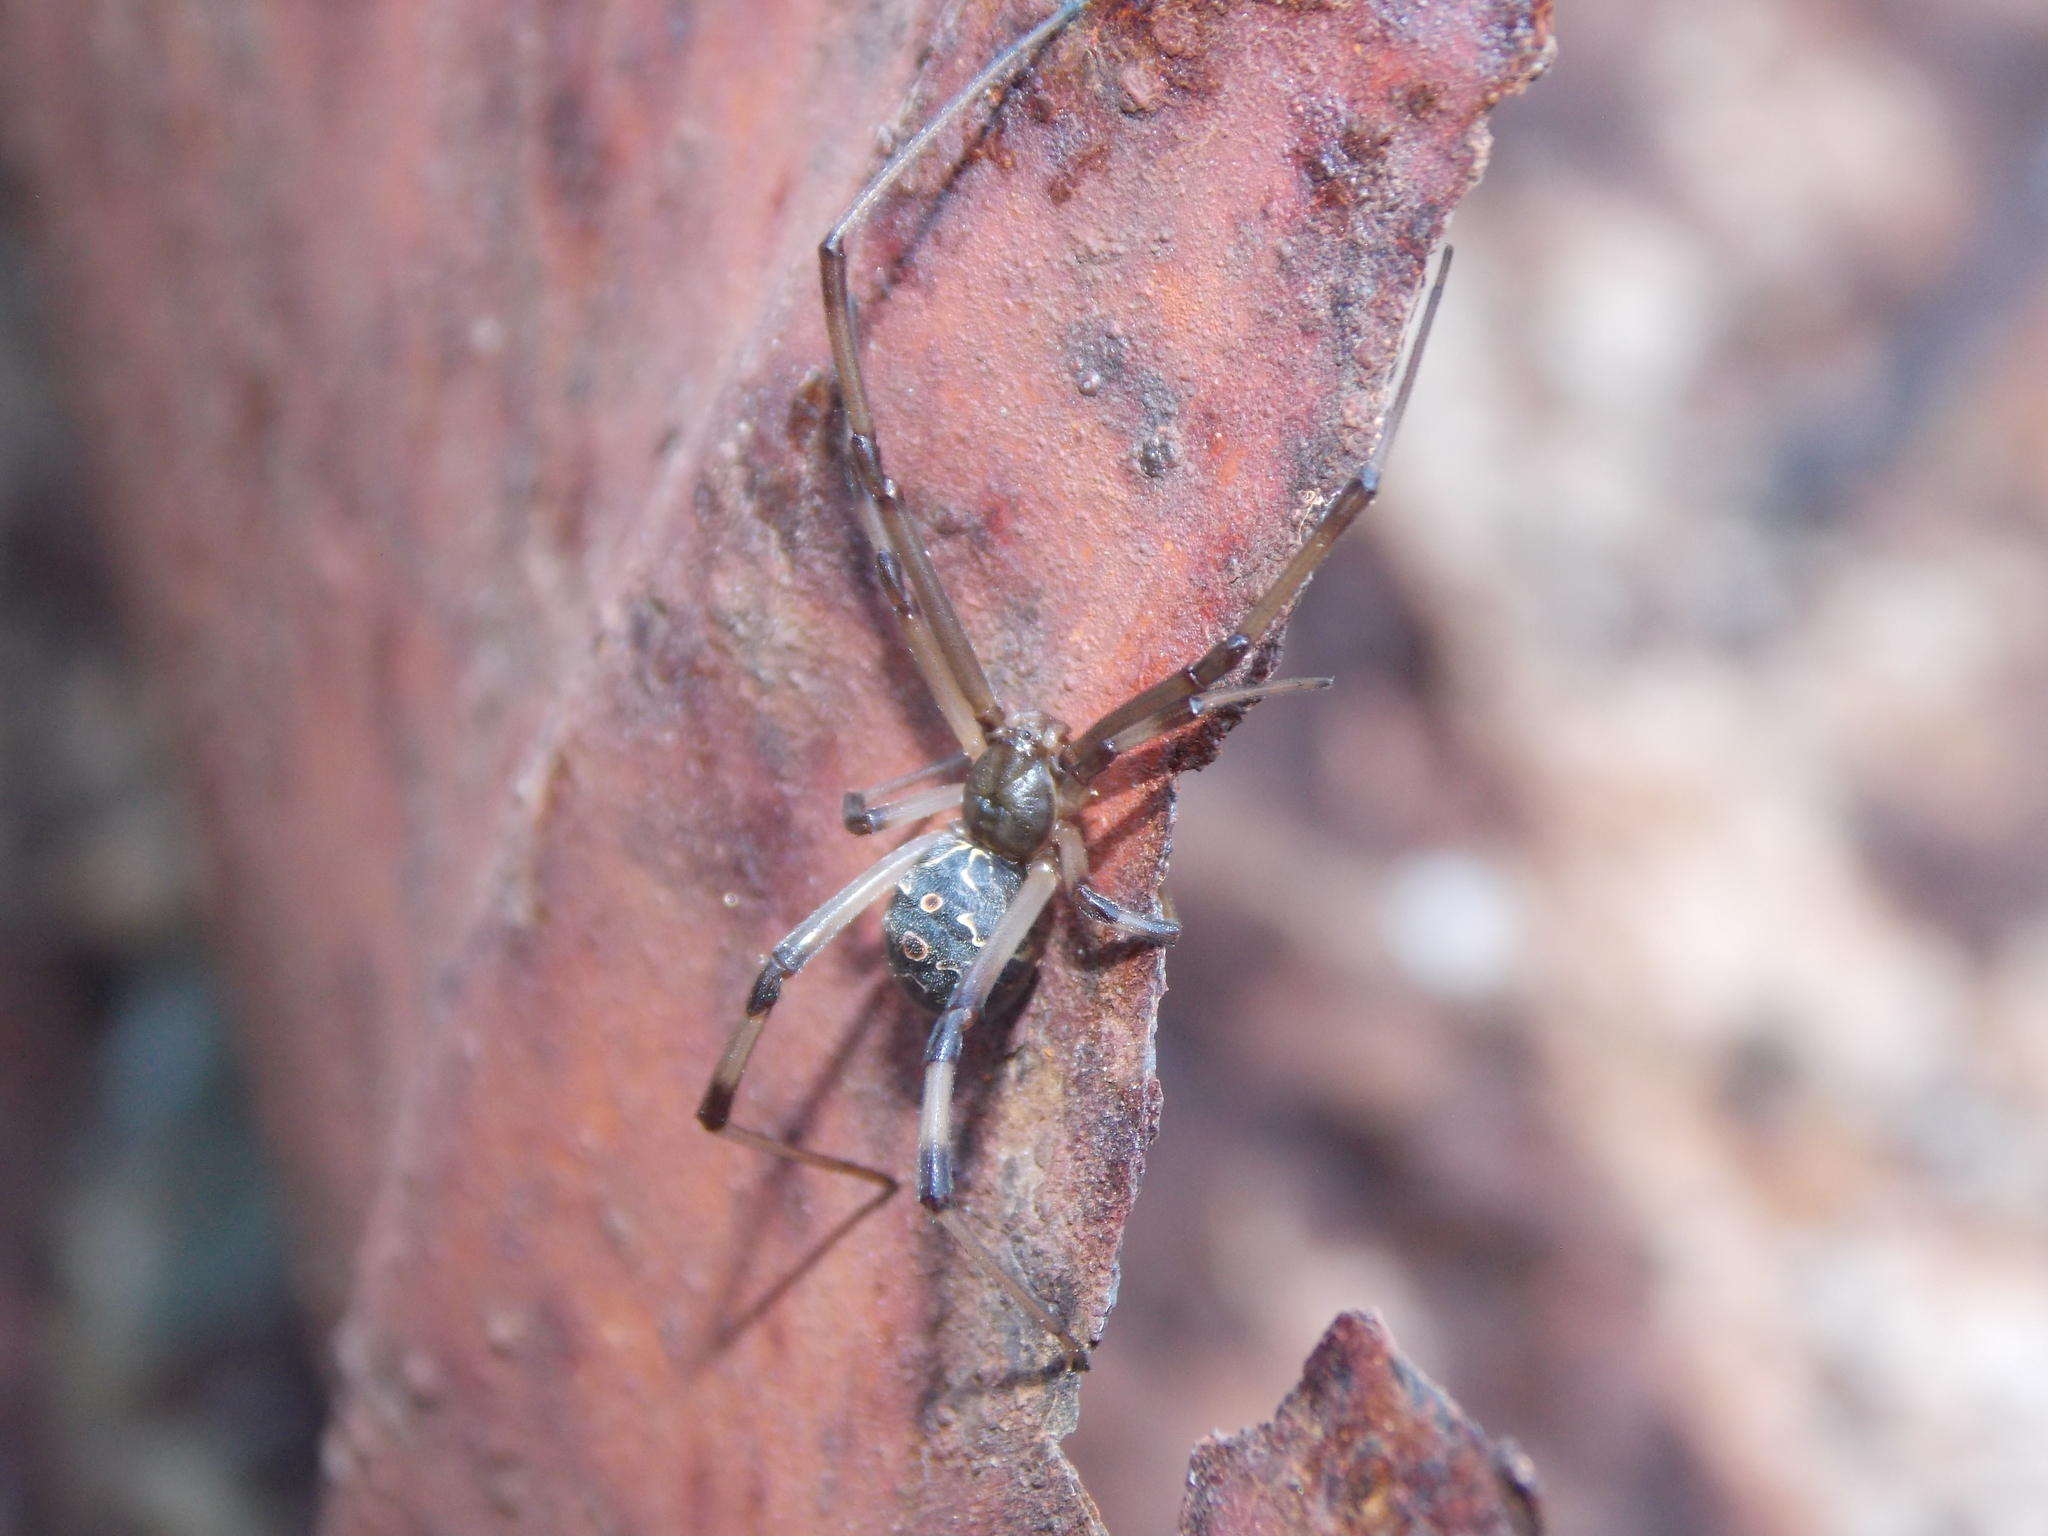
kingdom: Animalia
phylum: Arthropoda
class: Arachnida
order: Araneae
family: Theridiidae
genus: Latrodectus
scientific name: Latrodectus geometricus
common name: Brown widow spider
